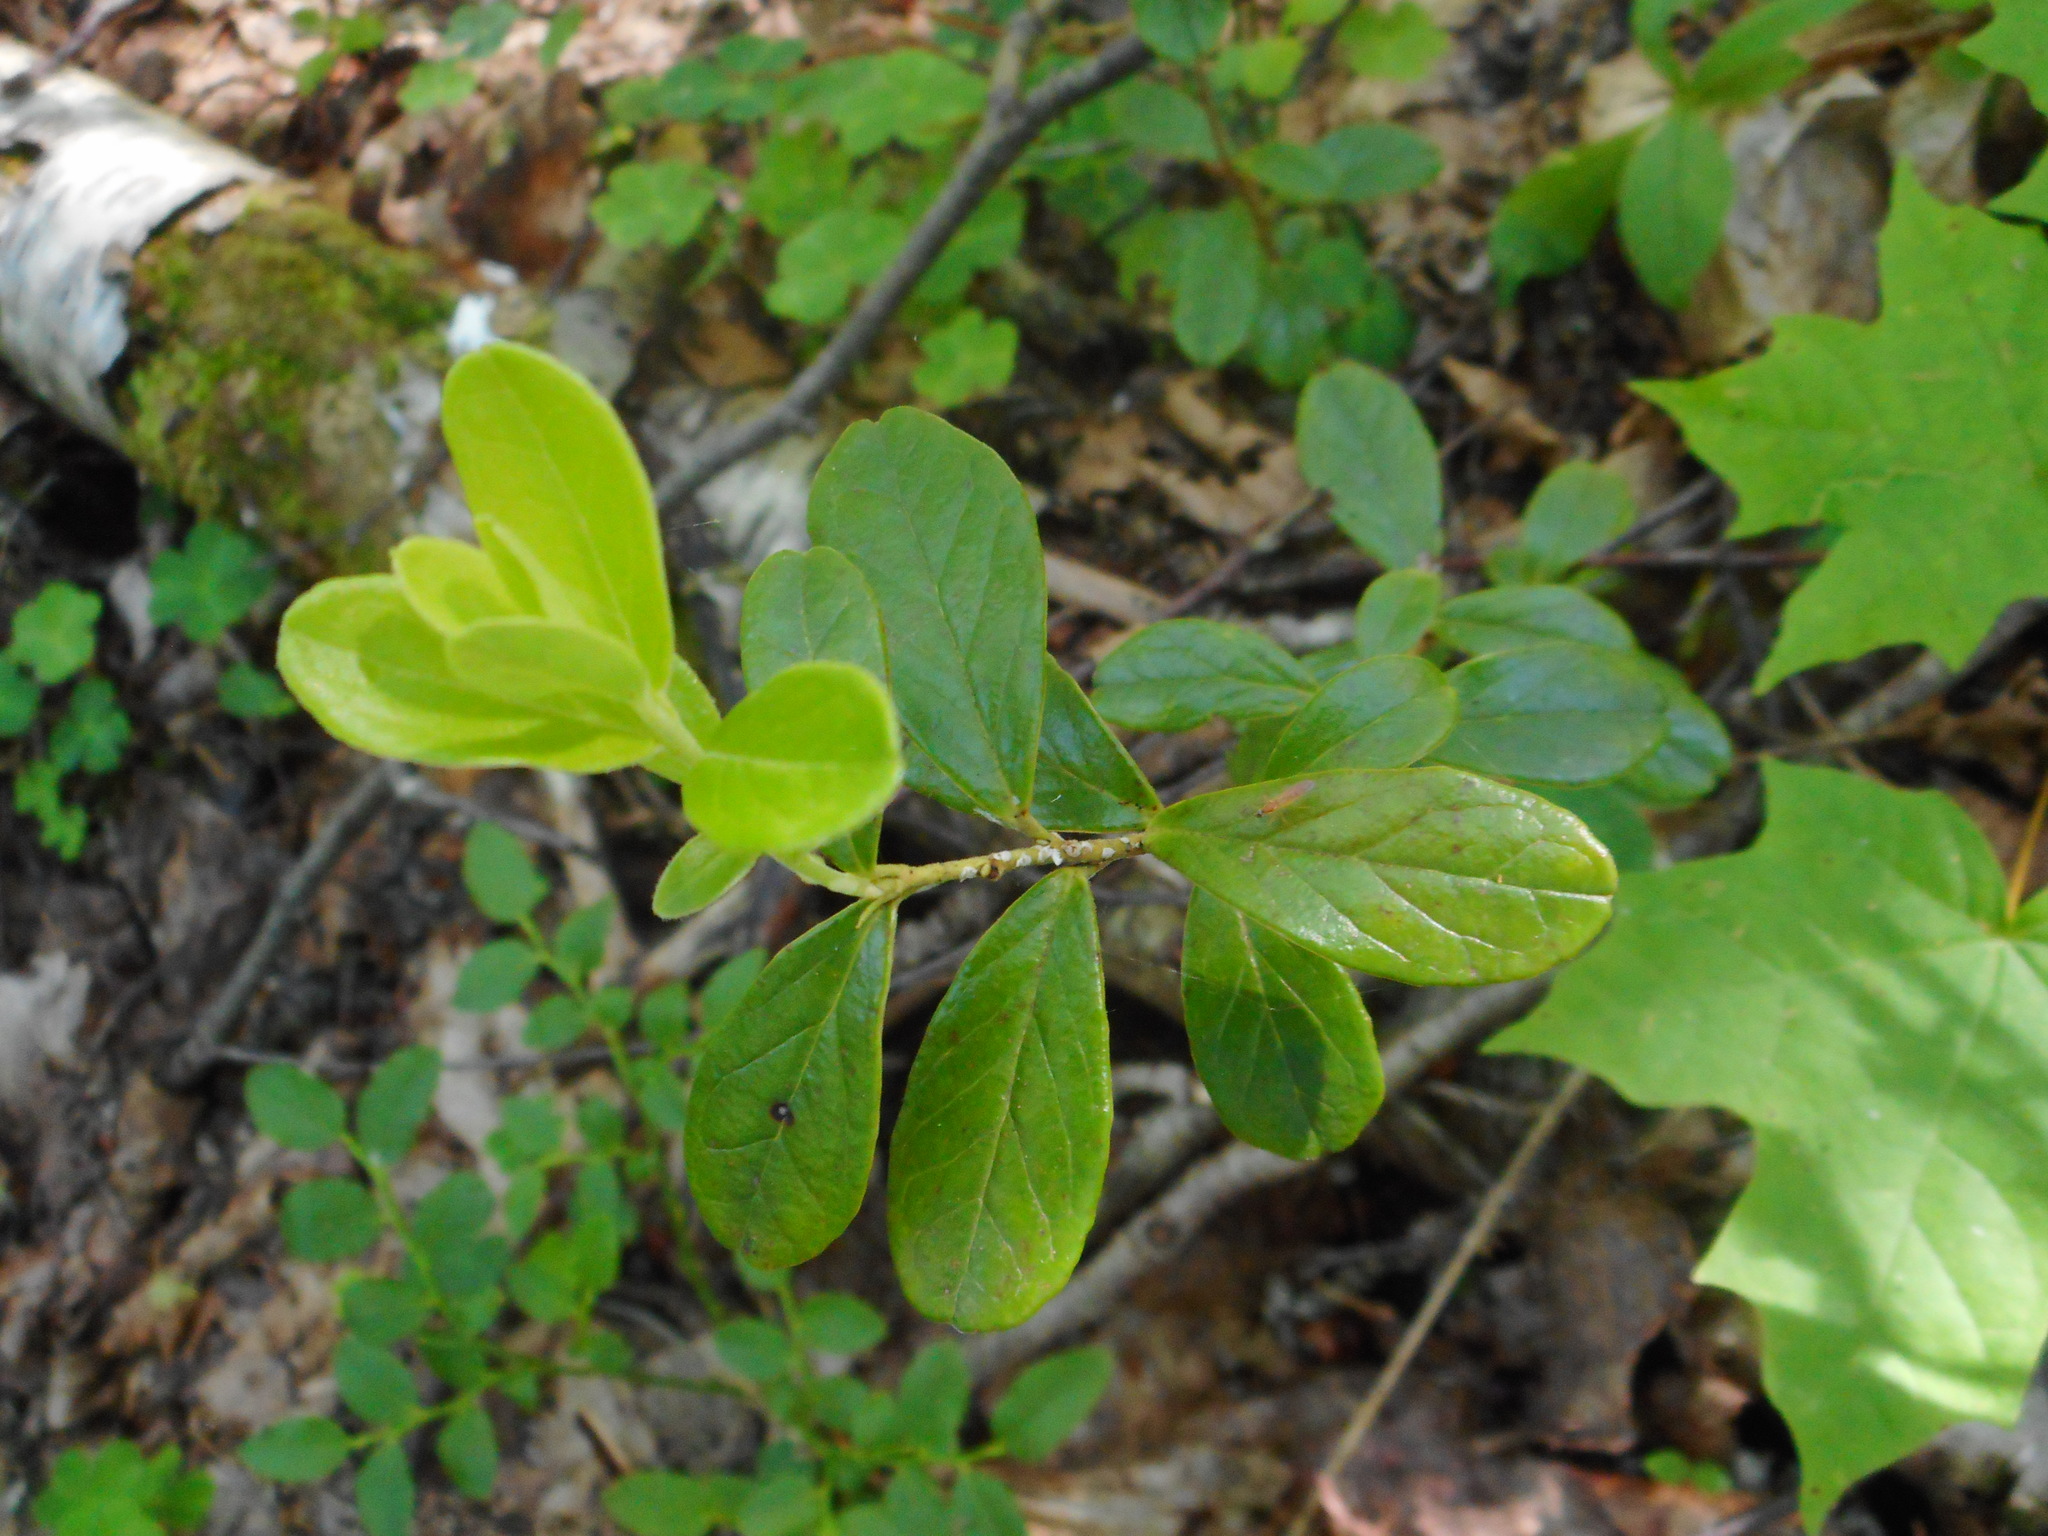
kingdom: Plantae
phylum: Tracheophyta
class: Magnoliopsida
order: Ericales
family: Ericaceae
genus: Vaccinium
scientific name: Vaccinium vitis-idaea
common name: Cowberry
